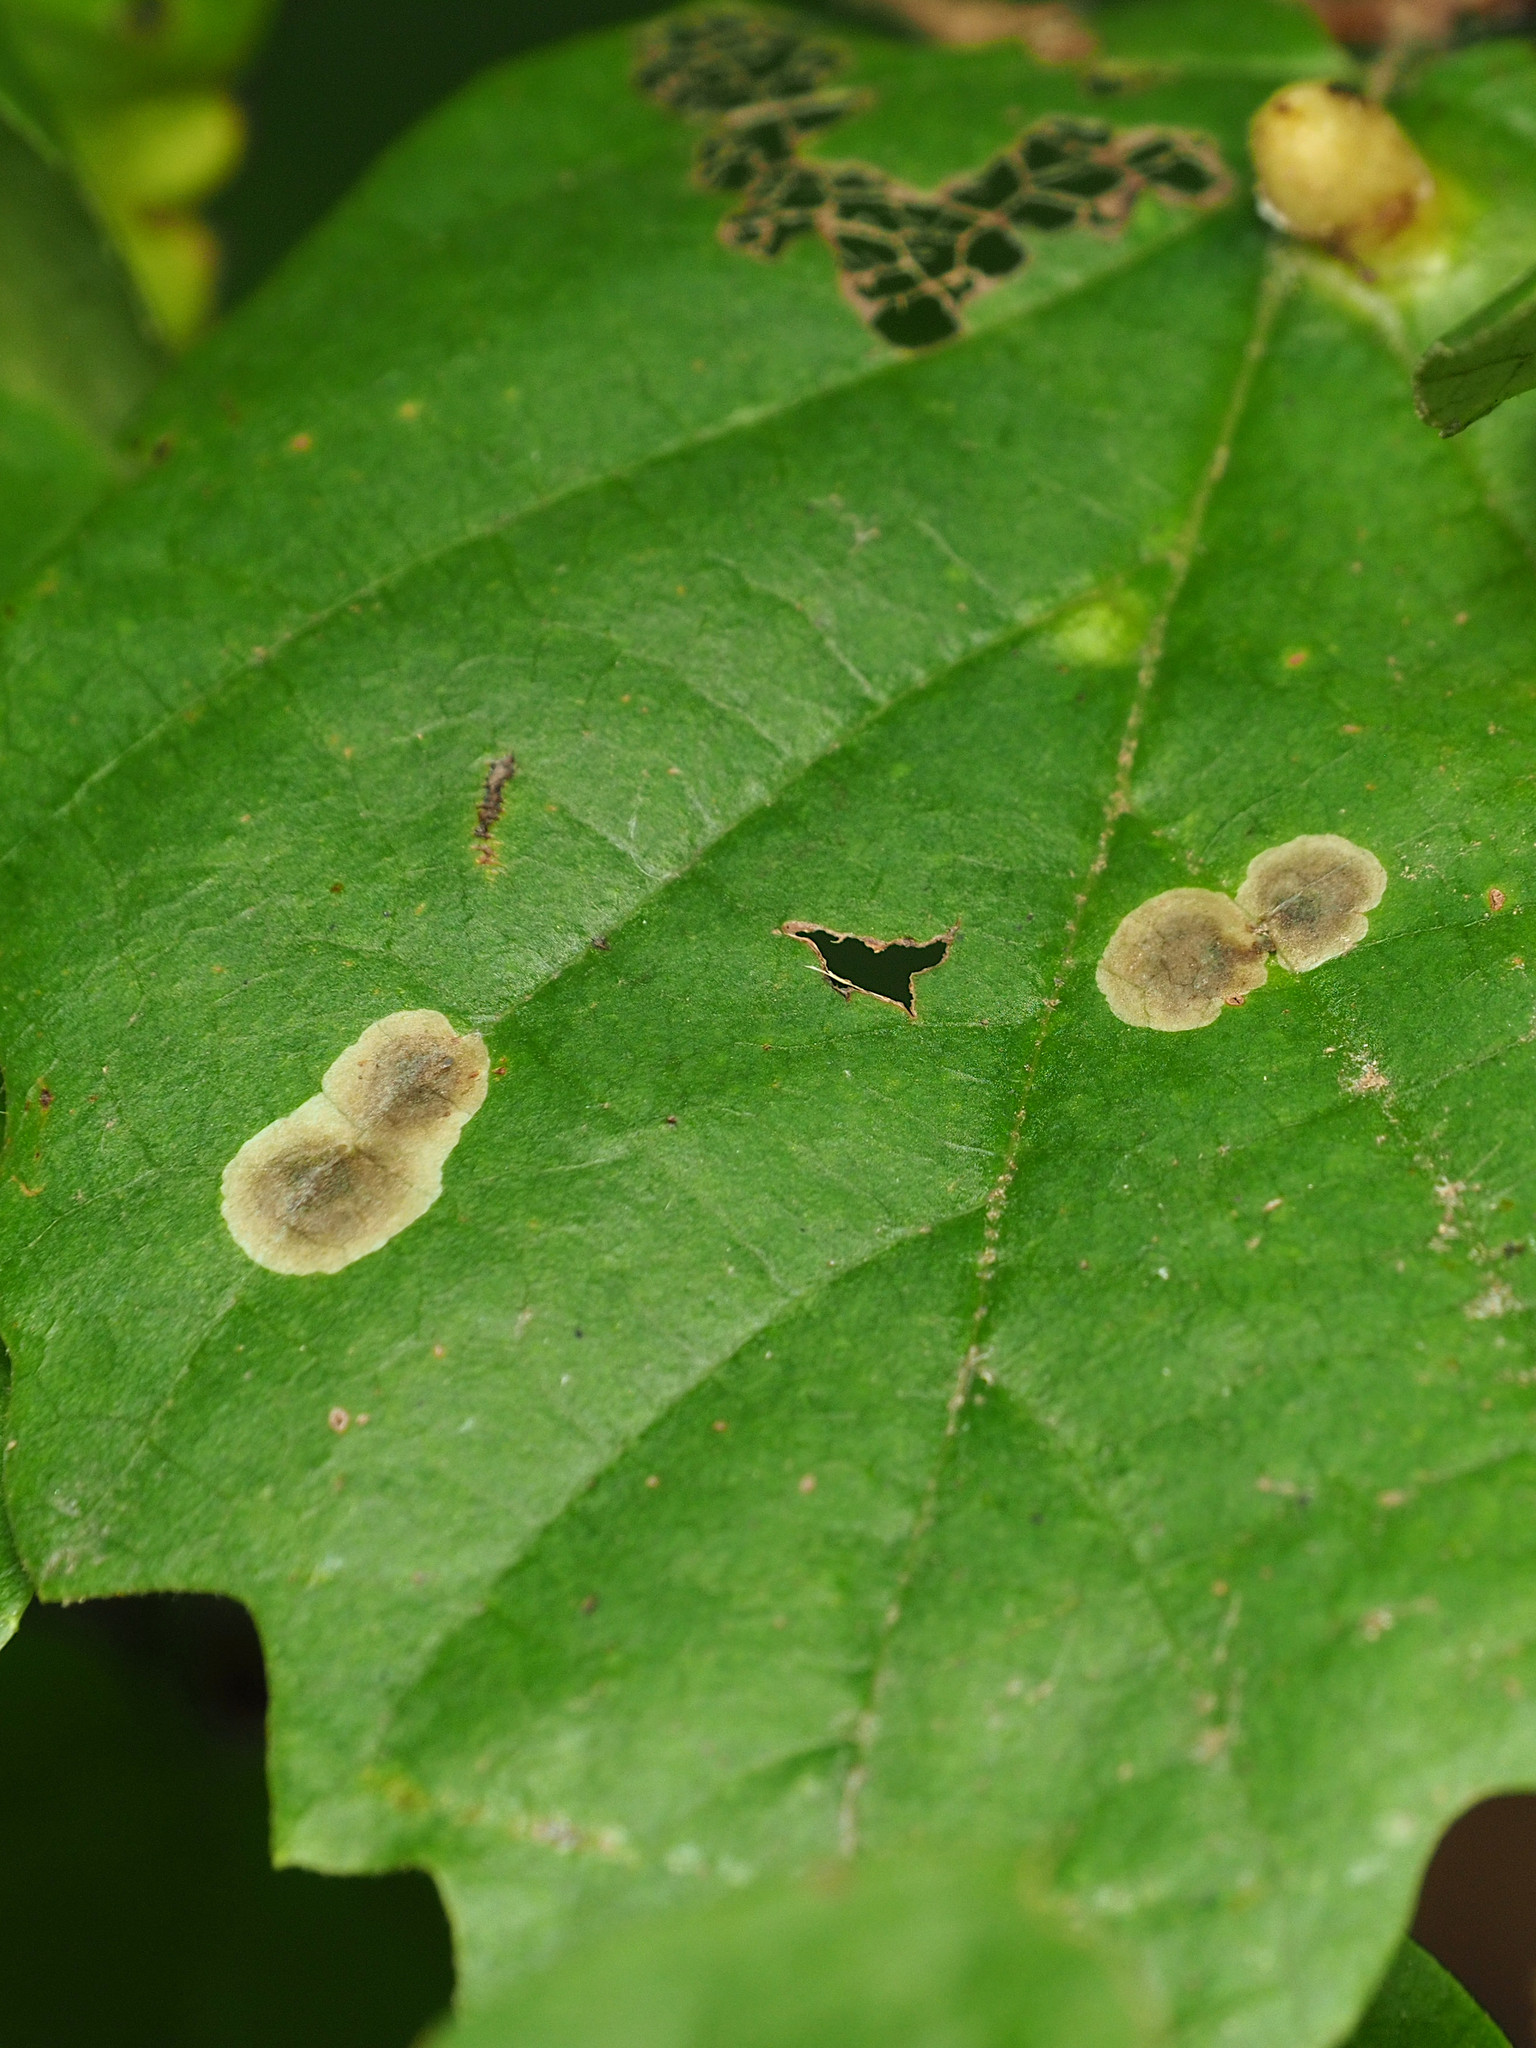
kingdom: Animalia
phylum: Arthropoda
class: Insecta
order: Lepidoptera
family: Gracillariidae
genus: Cameraria
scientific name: Cameraria hamameliella
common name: Witchhazel leafminer
